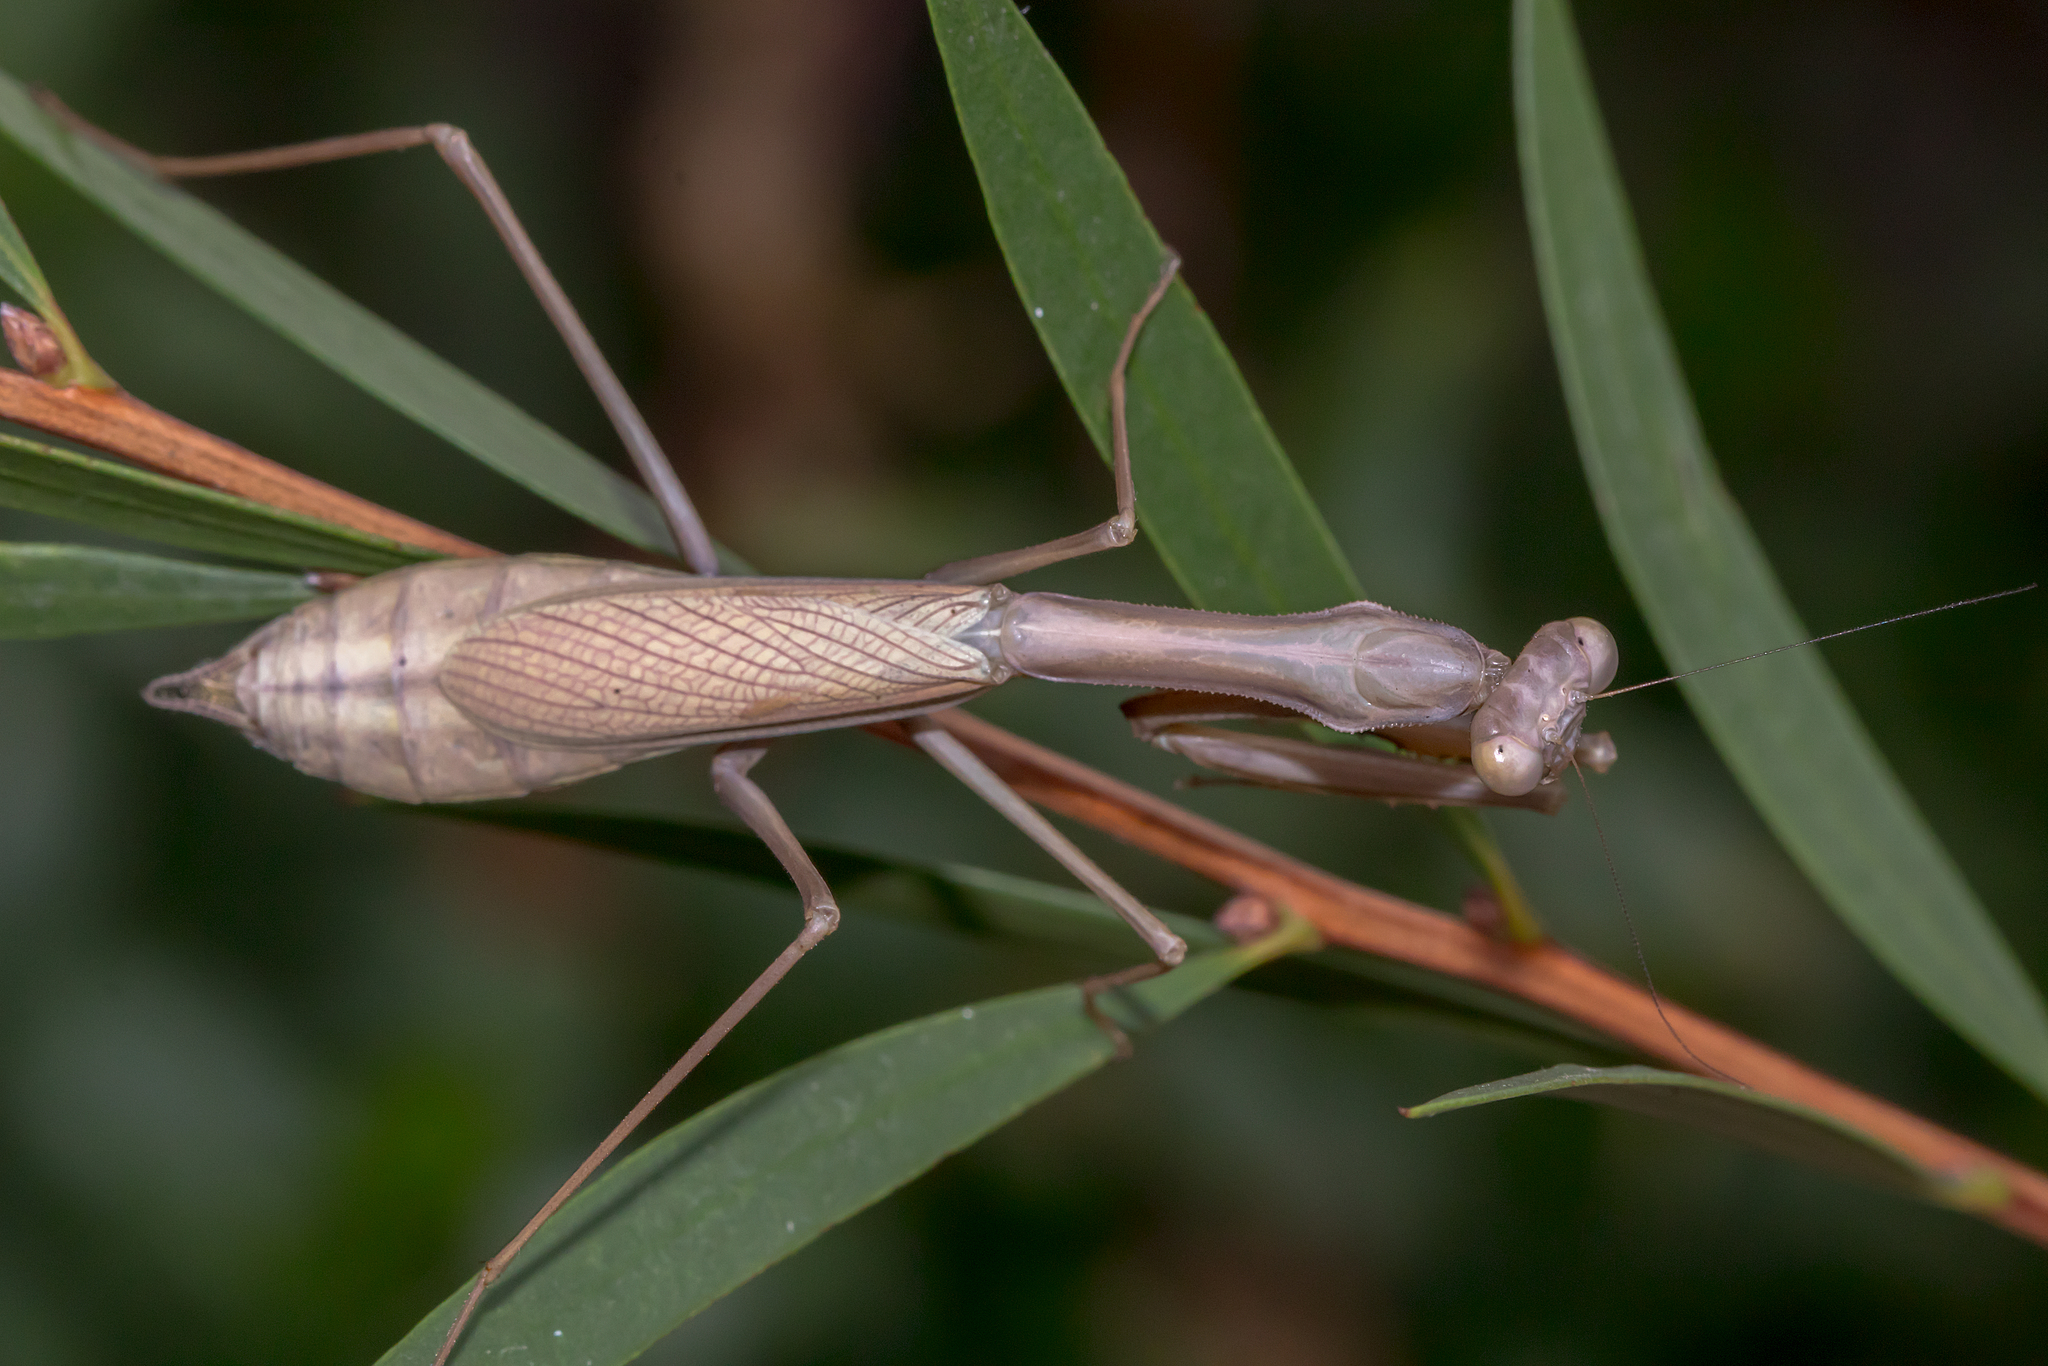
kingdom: Animalia
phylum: Arthropoda
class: Insecta
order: Mantodea
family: Mantidae
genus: Pseudomantis
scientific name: Pseudomantis albofimbriata
